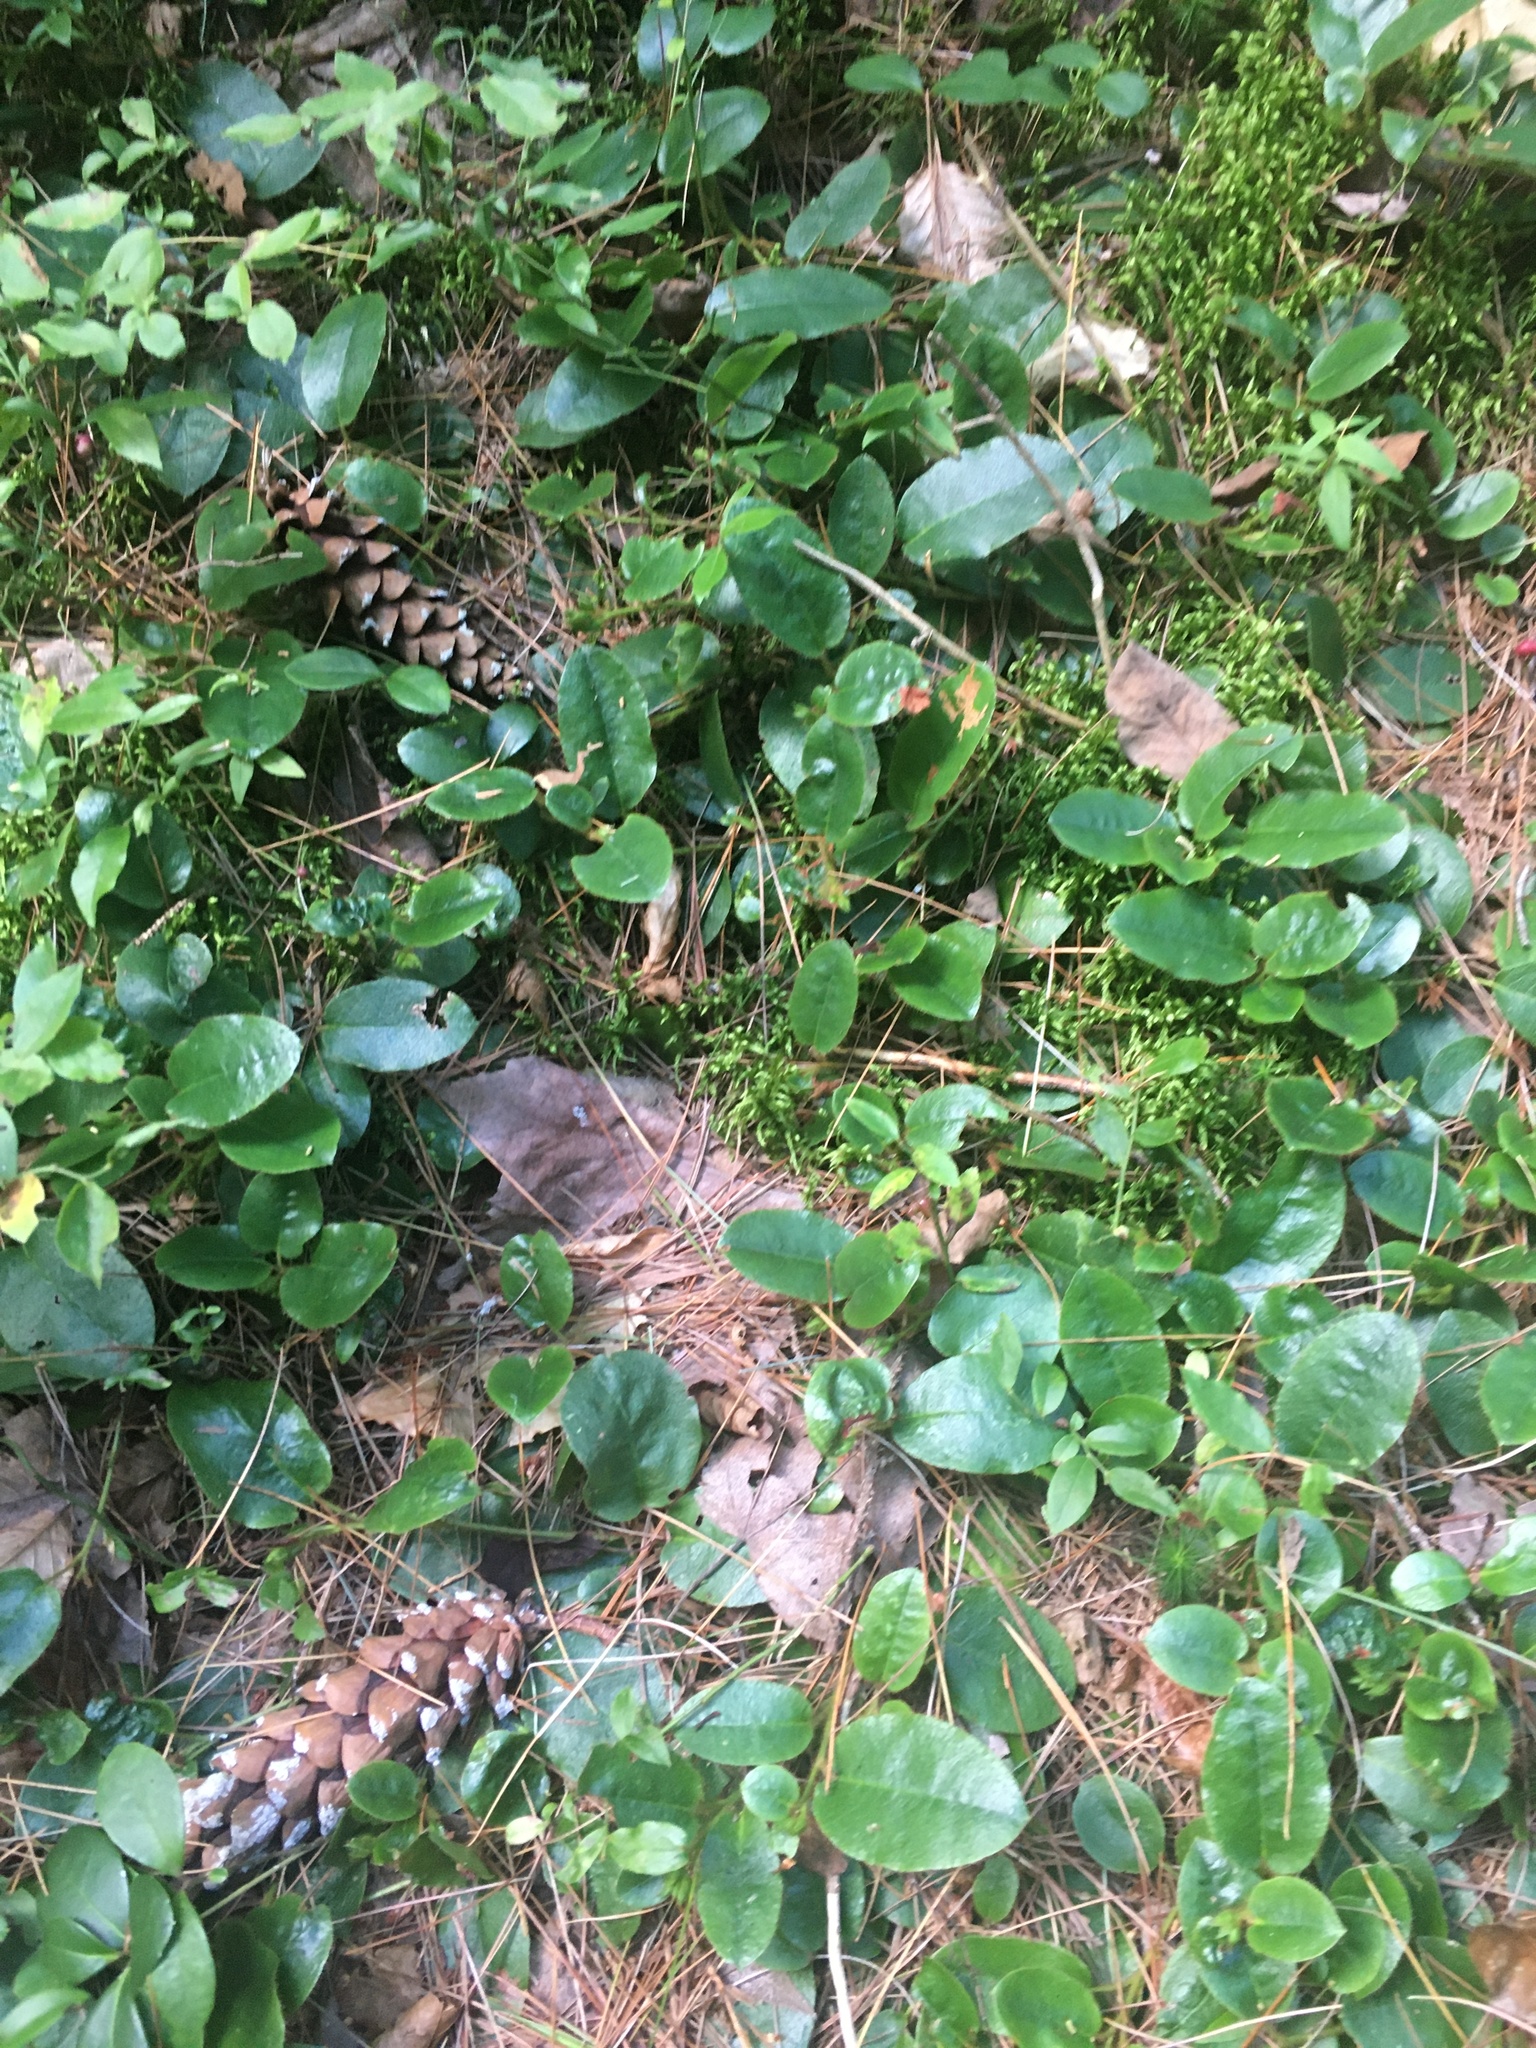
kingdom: Plantae
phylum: Tracheophyta
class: Magnoliopsida
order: Ericales
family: Ericaceae
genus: Epigaea
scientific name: Epigaea repens
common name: Gravelroot
